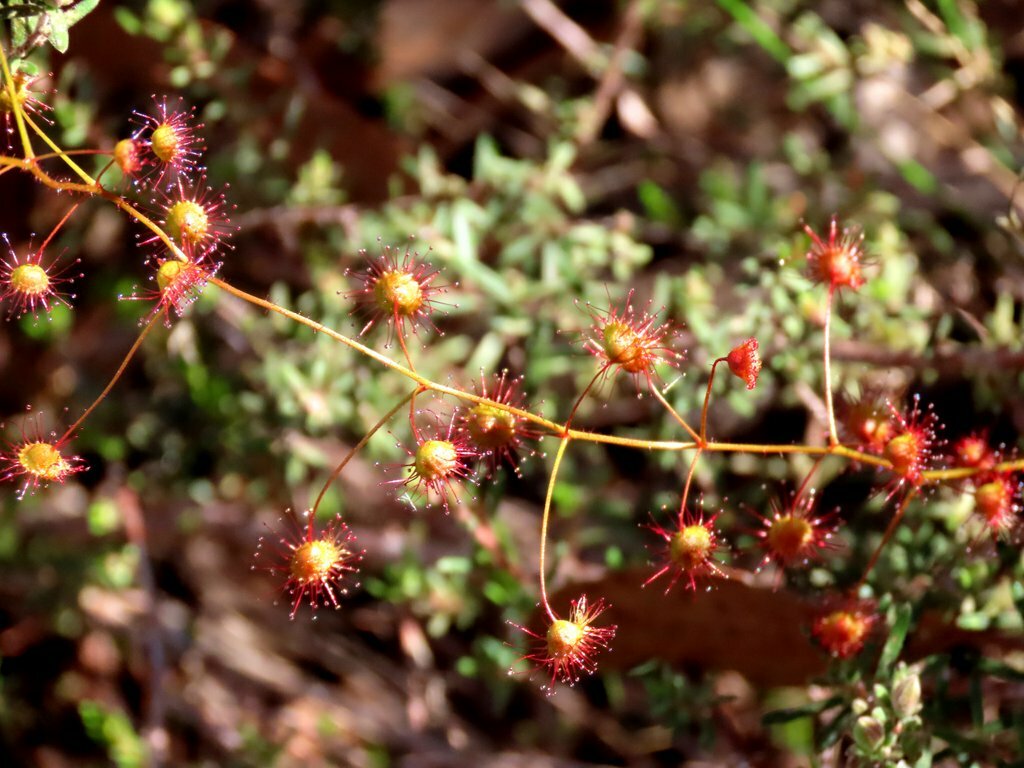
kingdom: Plantae
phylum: Tracheophyta
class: Magnoliopsida
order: Caryophyllales
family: Droseraceae
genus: Drosera
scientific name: Drosera planchonii
